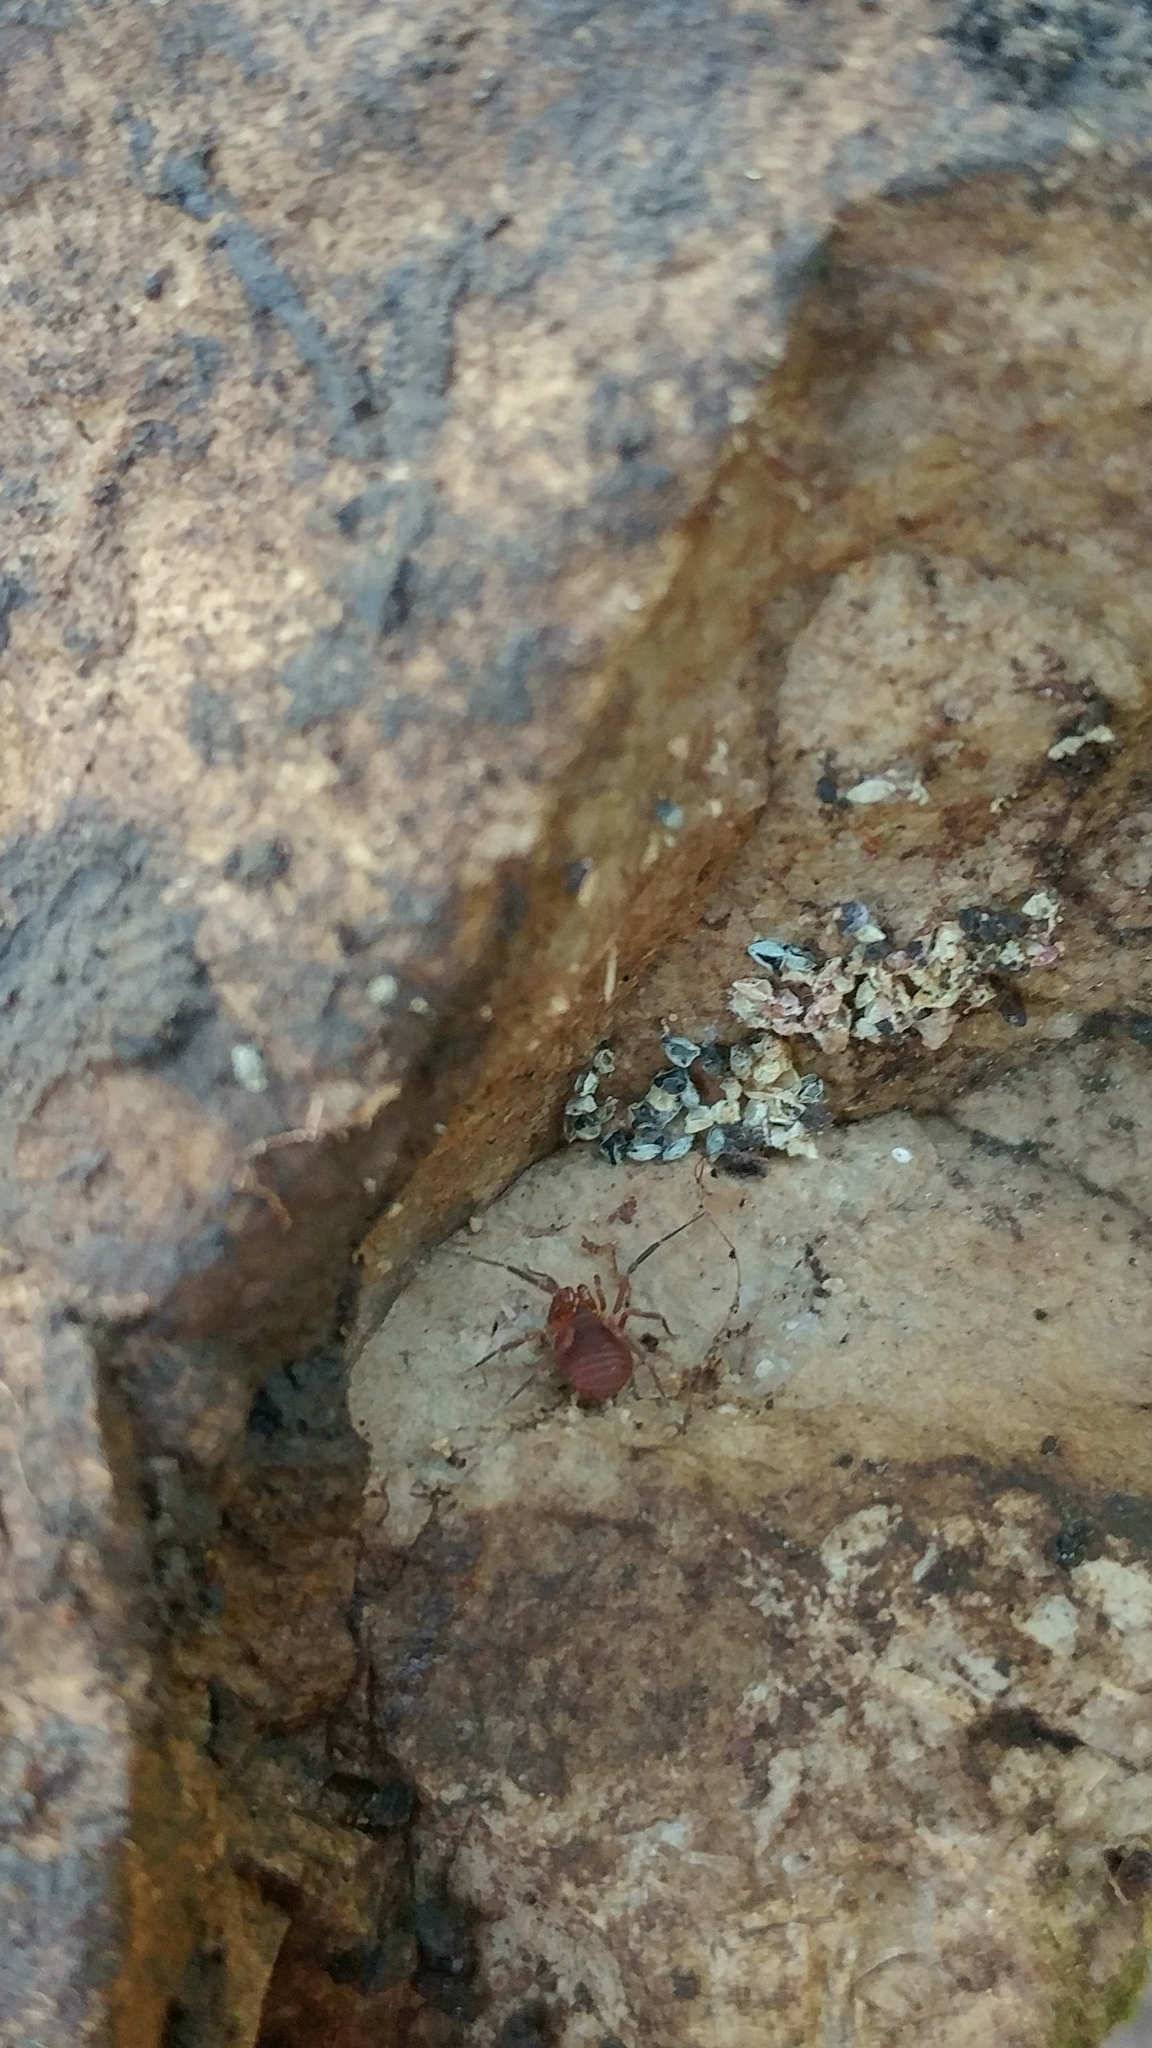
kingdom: Animalia
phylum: Arthropoda
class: Arachnida
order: Opiliones
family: Paranonychidae
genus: Sclerobunus
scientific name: Sclerobunus robustus
